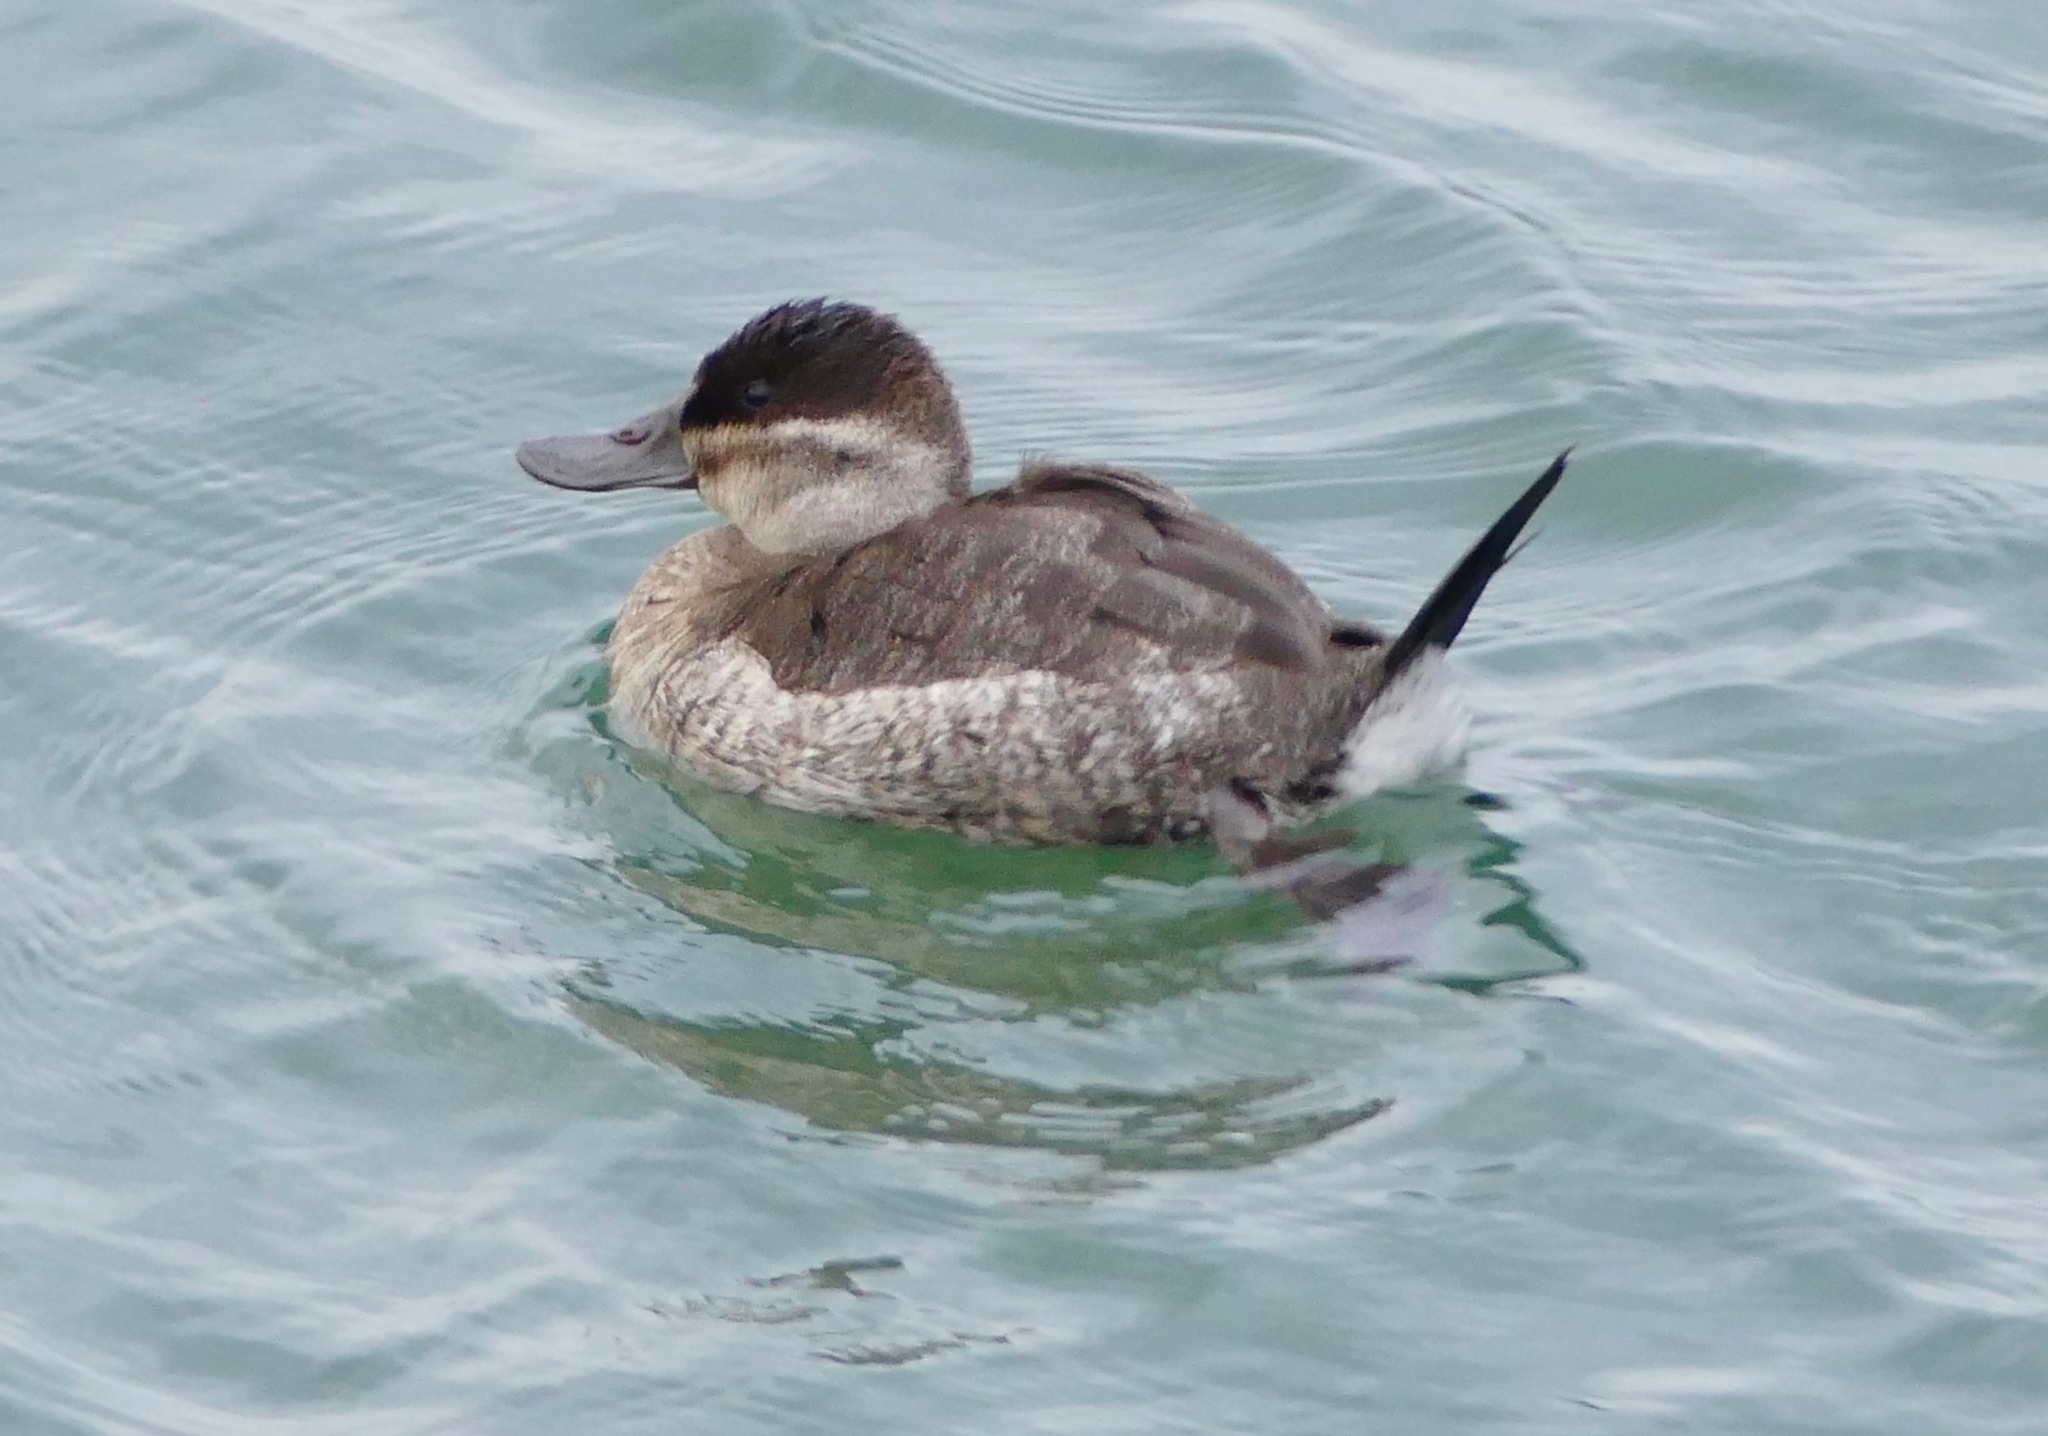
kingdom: Animalia
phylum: Chordata
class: Aves
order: Anseriformes
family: Anatidae
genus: Oxyura
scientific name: Oxyura jamaicensis
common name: Ruddy duck
